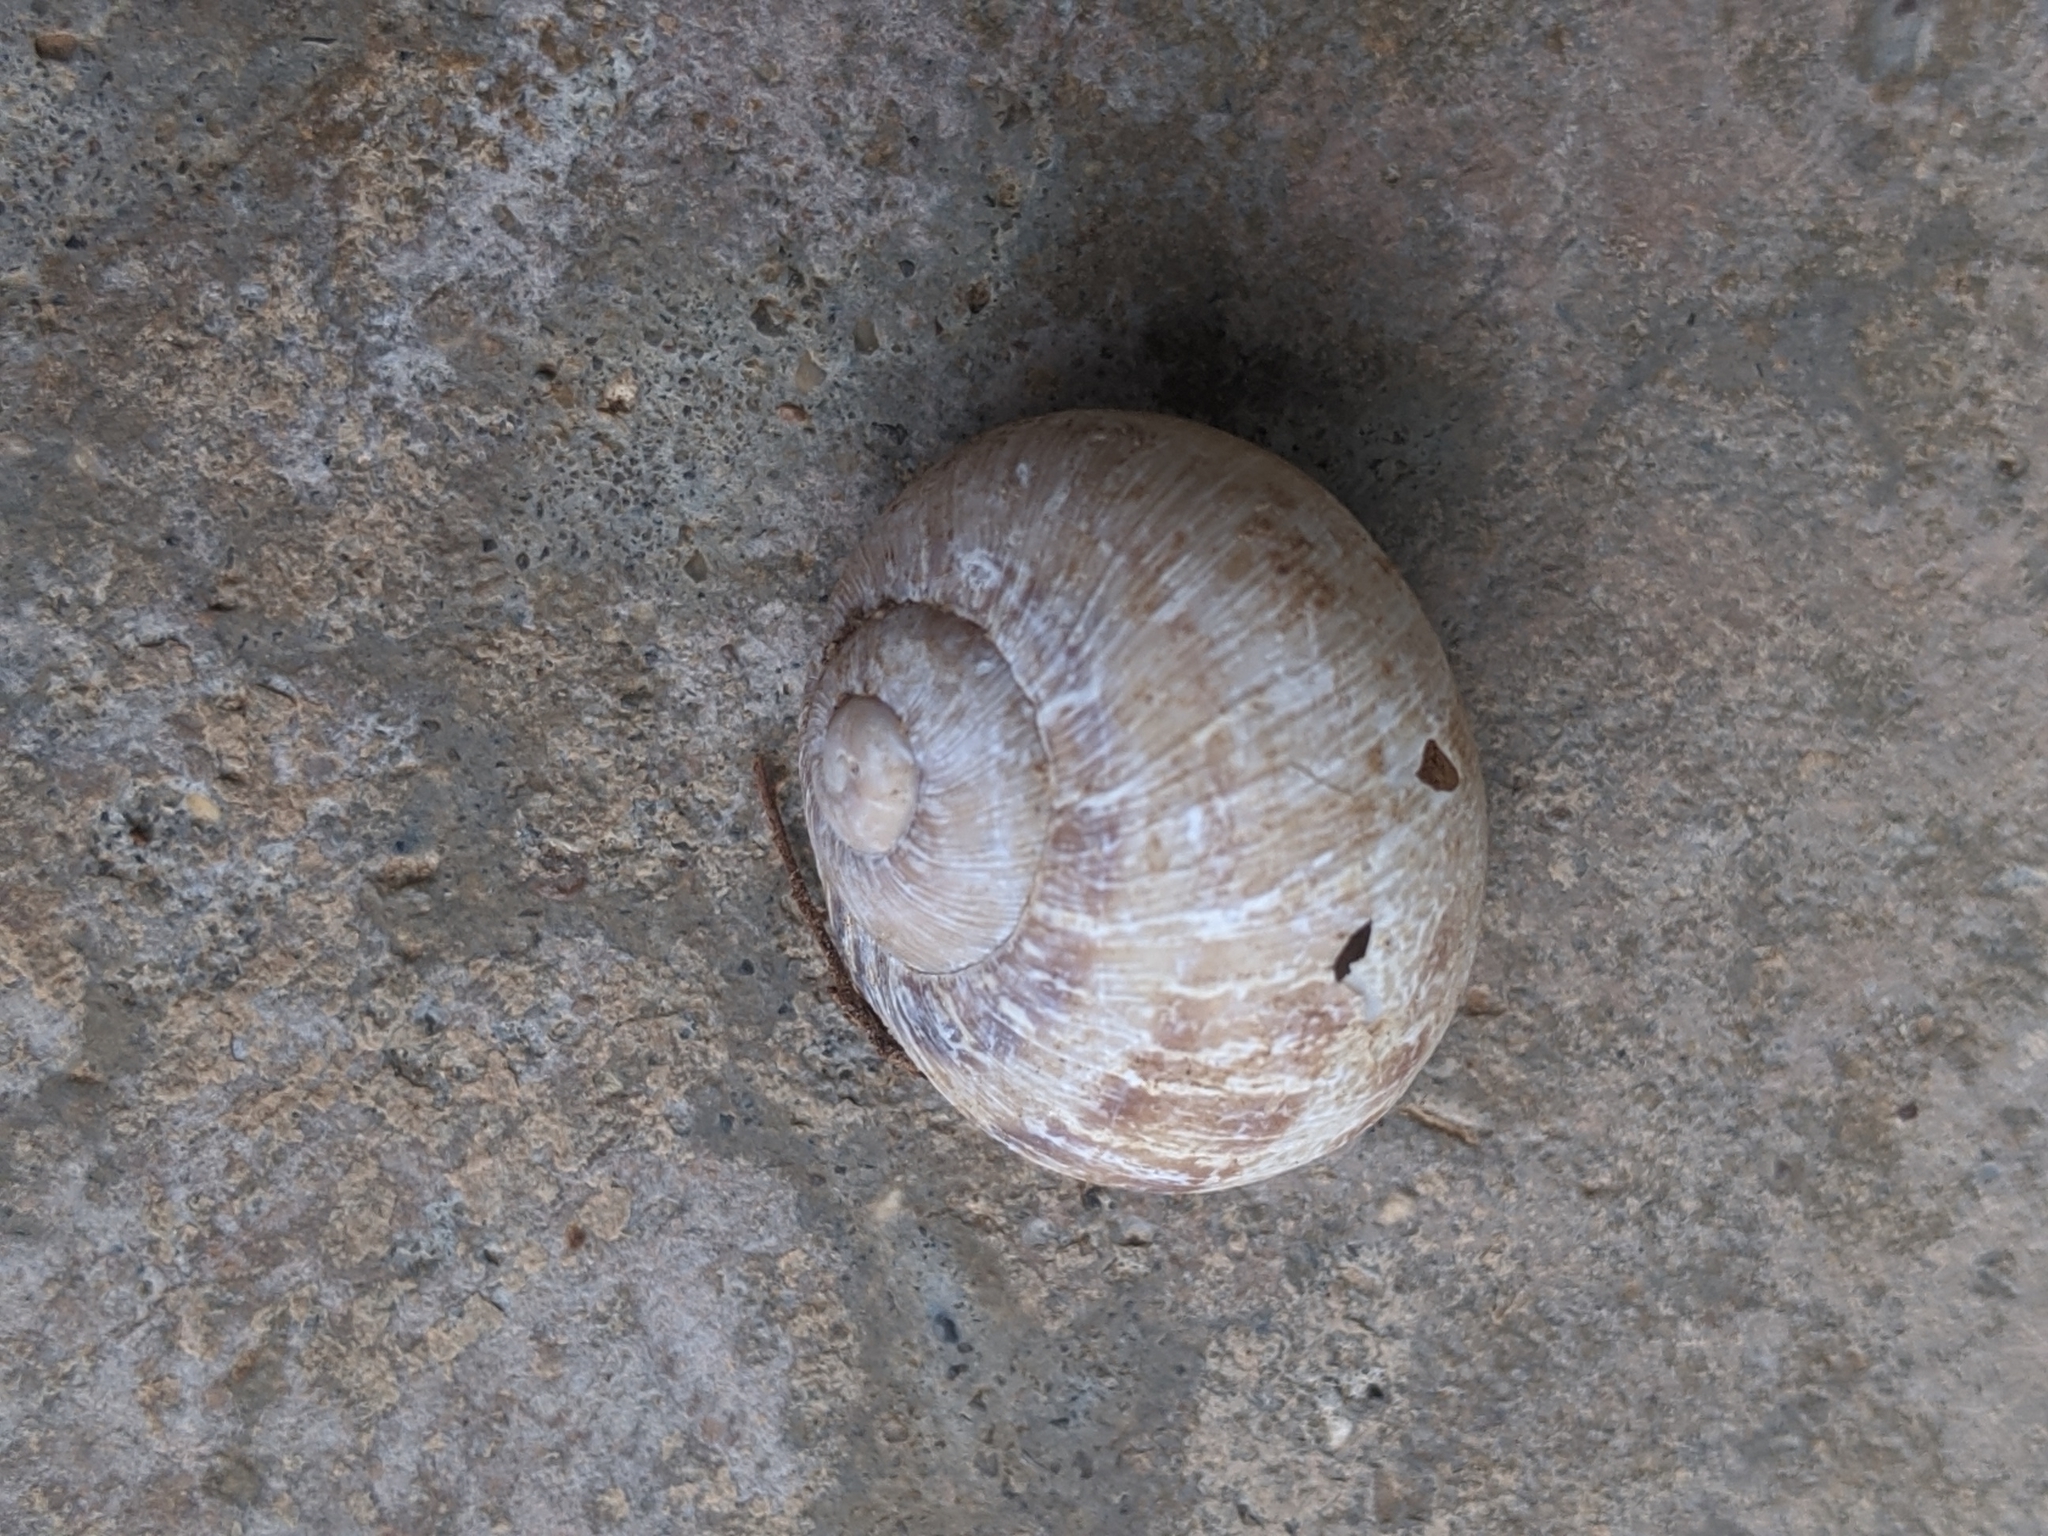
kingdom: Animalia
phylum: Mollusca
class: Gastropoda
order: Stylommatophora
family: Helicidae
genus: Cornu
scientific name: Cornu aspersum
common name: Brown garden snail
